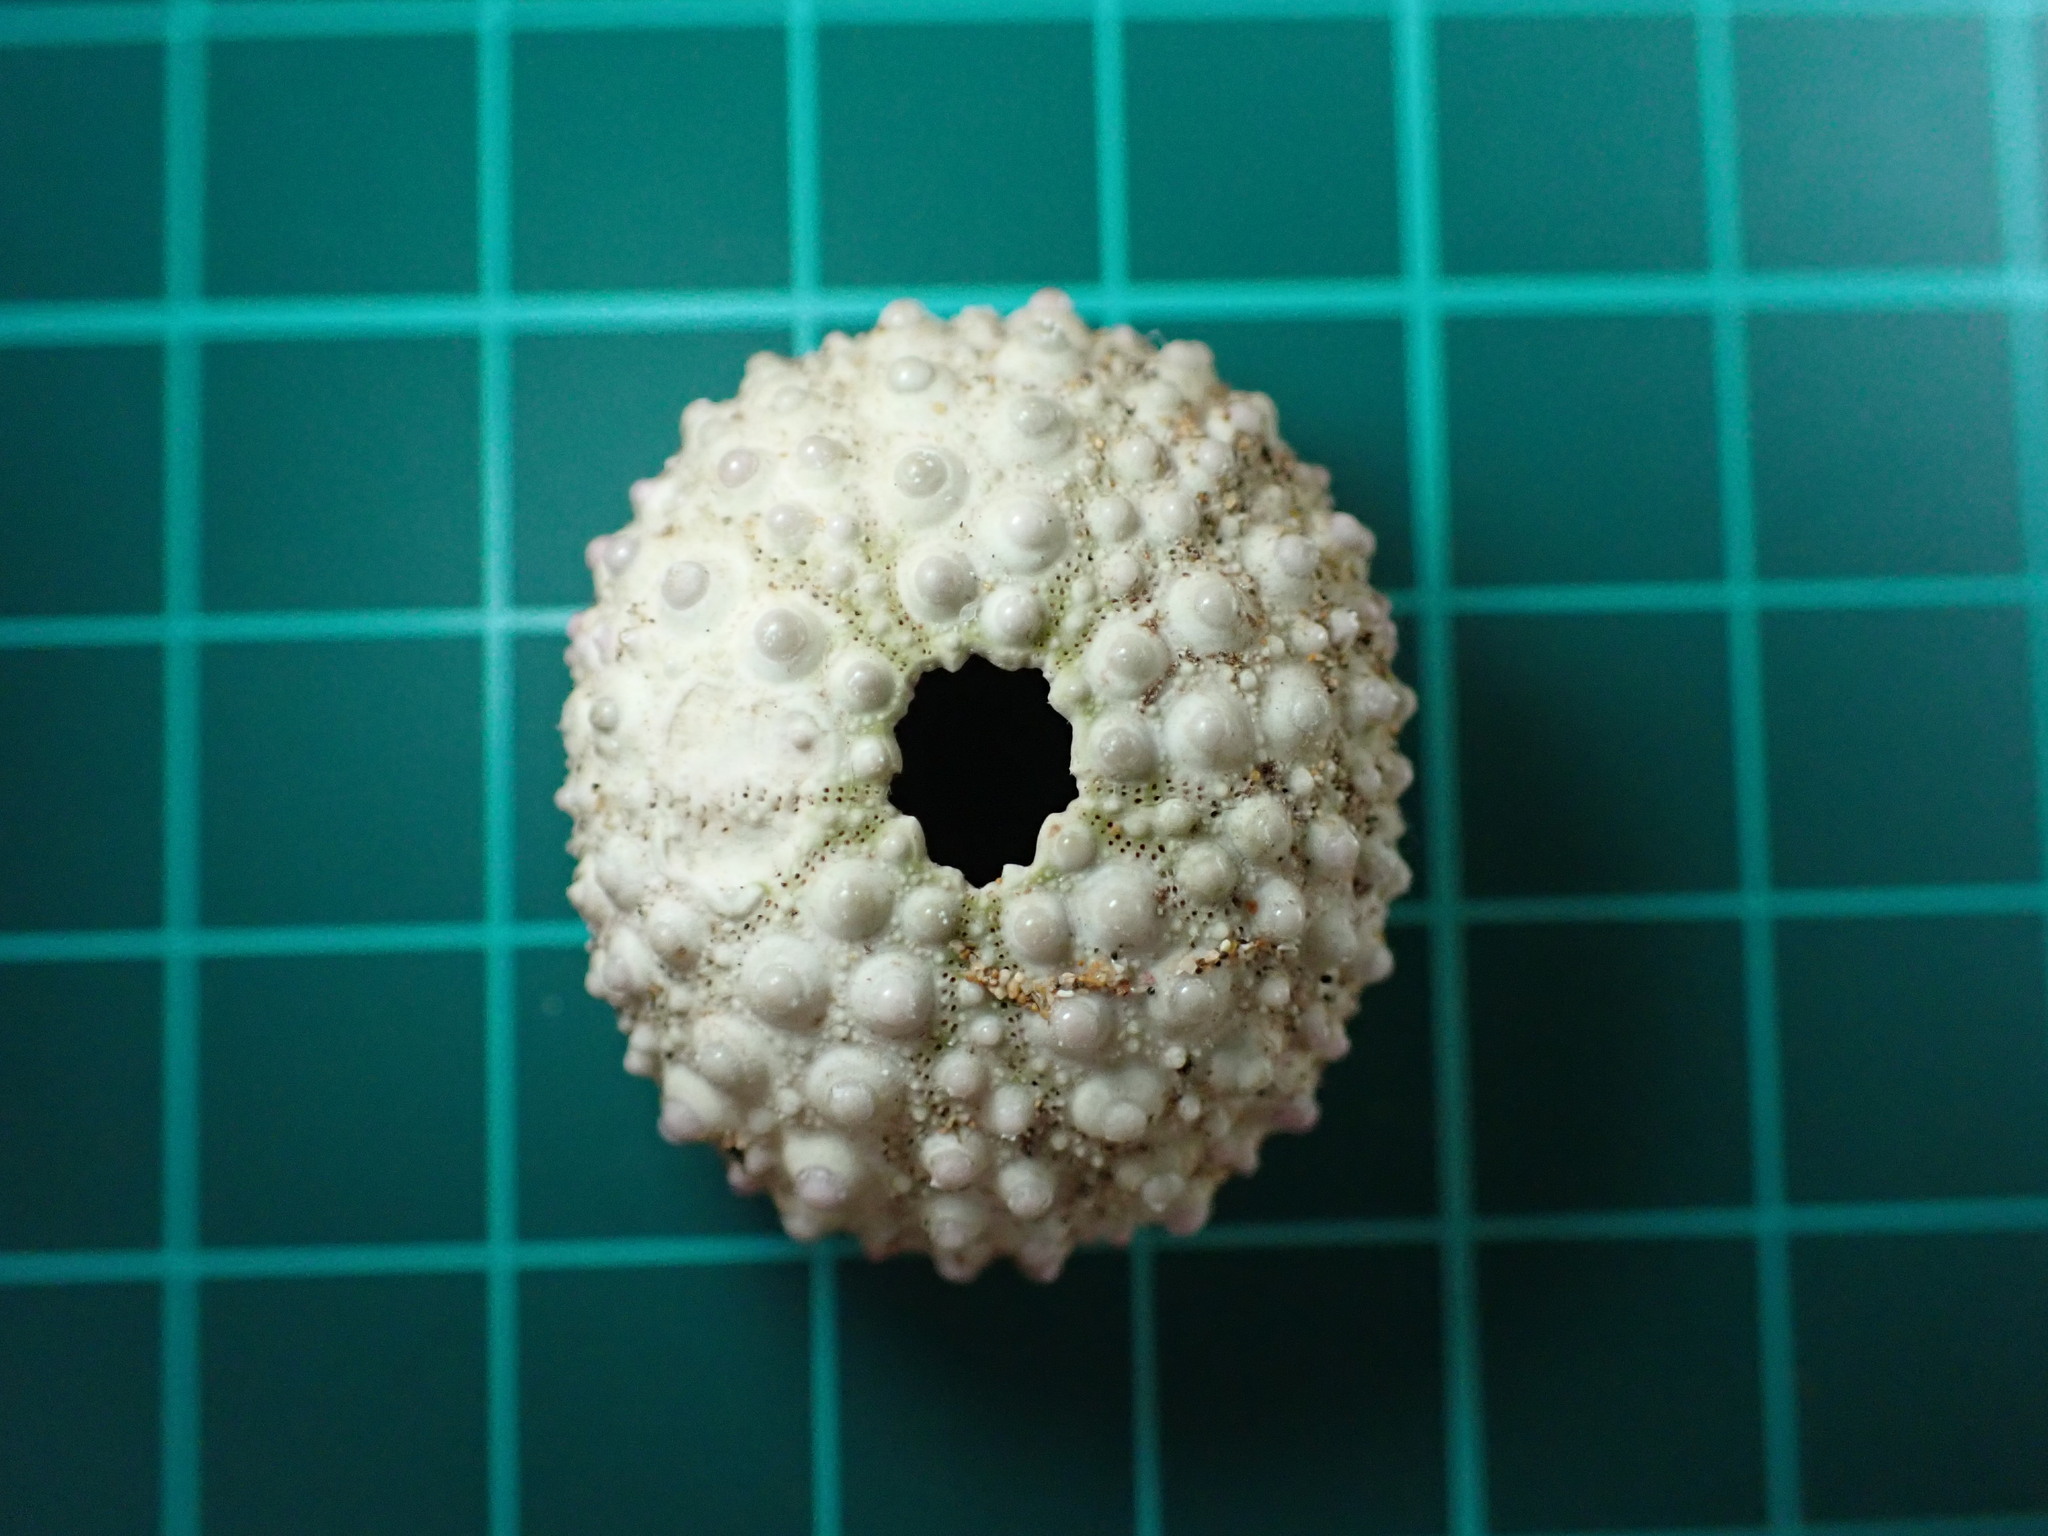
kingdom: Animalia
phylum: Echinodermata
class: Echinoidea
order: Camarodonta
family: Echinometridae
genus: Echinometra
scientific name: Echinometra mathaei
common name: Rock-boring urchin
